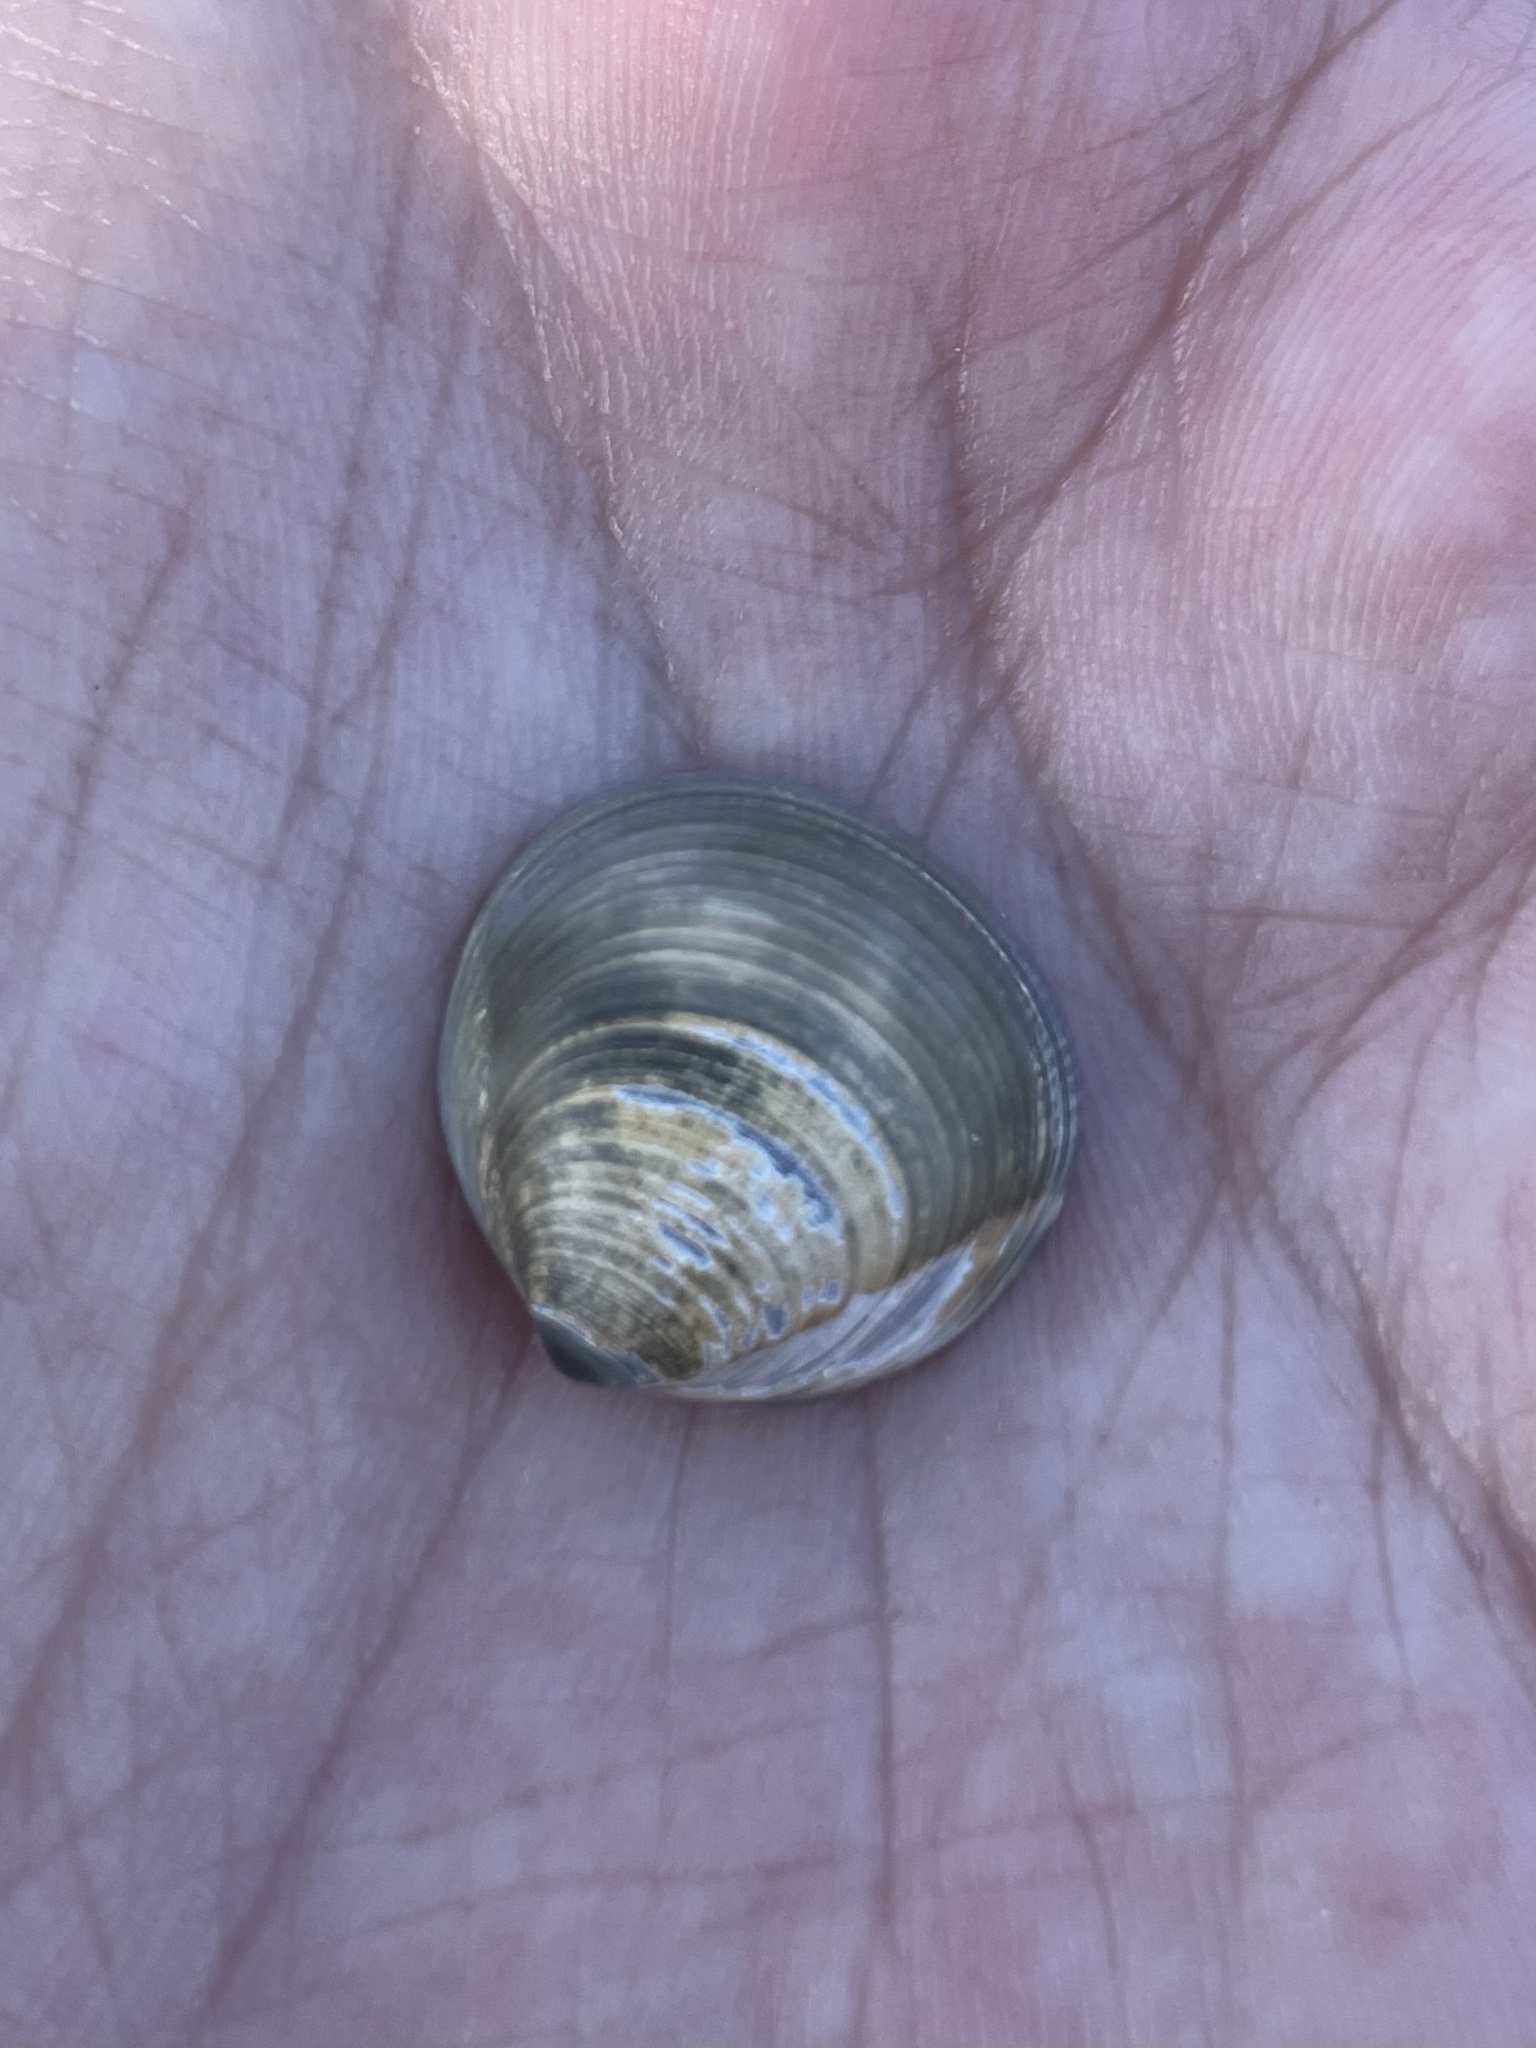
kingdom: Animalia
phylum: Mollusca
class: Bivalvia
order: Cardiida
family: Cardiidae
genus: Laevicardium
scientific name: Laevicardium mortoni
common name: Morton eggcockle
